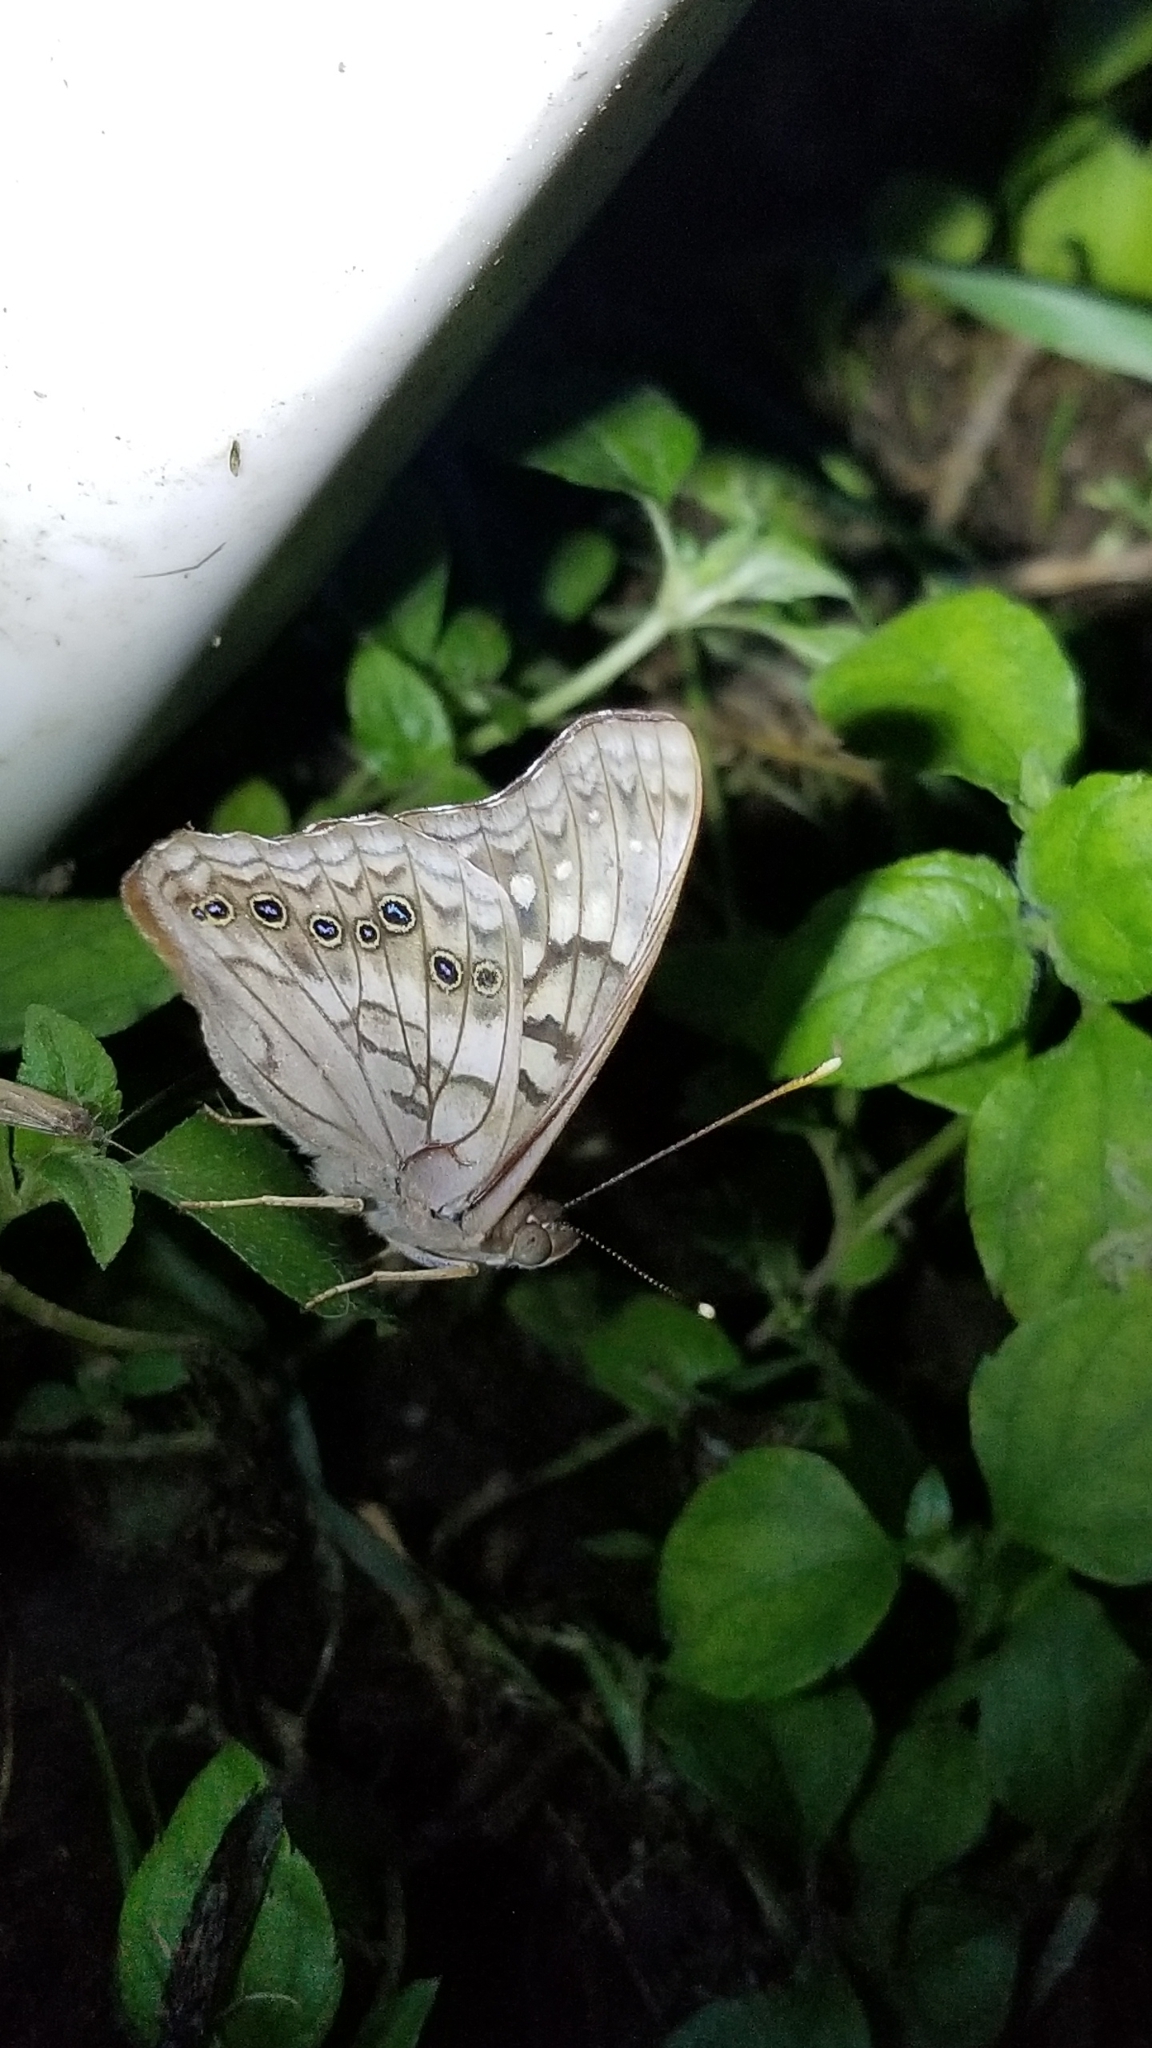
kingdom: Animalia
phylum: Arthropoda
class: Insecta
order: Lepidoptera
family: Nymphalidae
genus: Asterocampa
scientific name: Asterocampa clyton
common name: Tawny emperor
